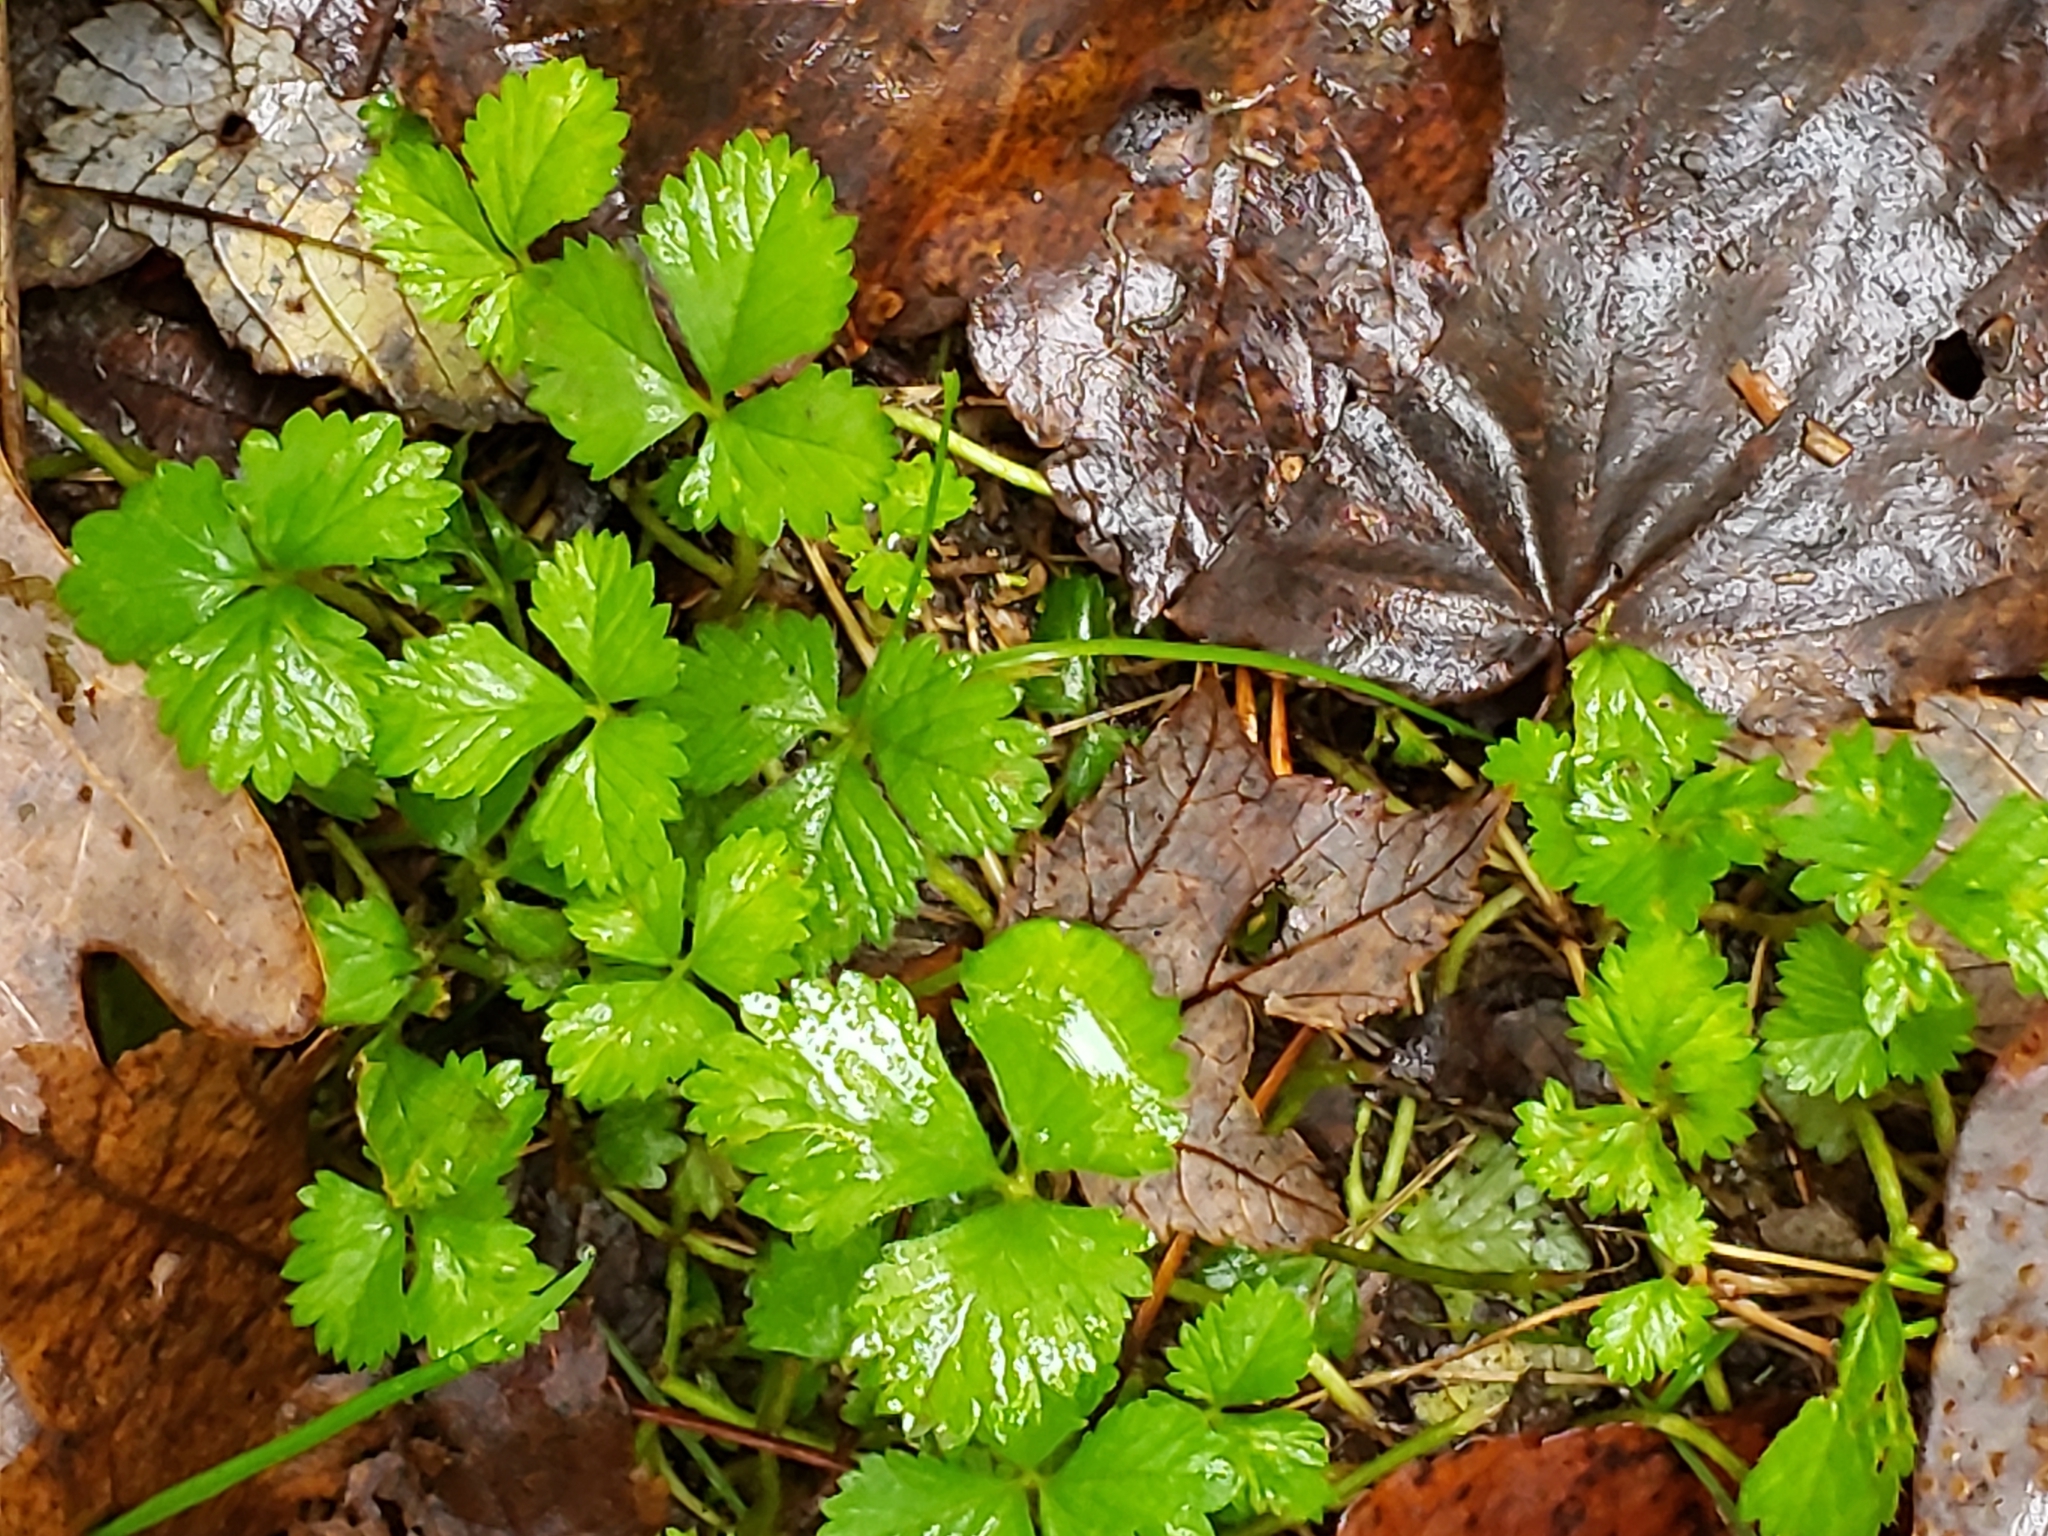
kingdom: Plantae
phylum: Tracheophyta
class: Magnoliopsida
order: Rosales
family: Rosaceae
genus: Potentilla
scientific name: Potentilla indica
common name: Yellow-flowered strawberry
